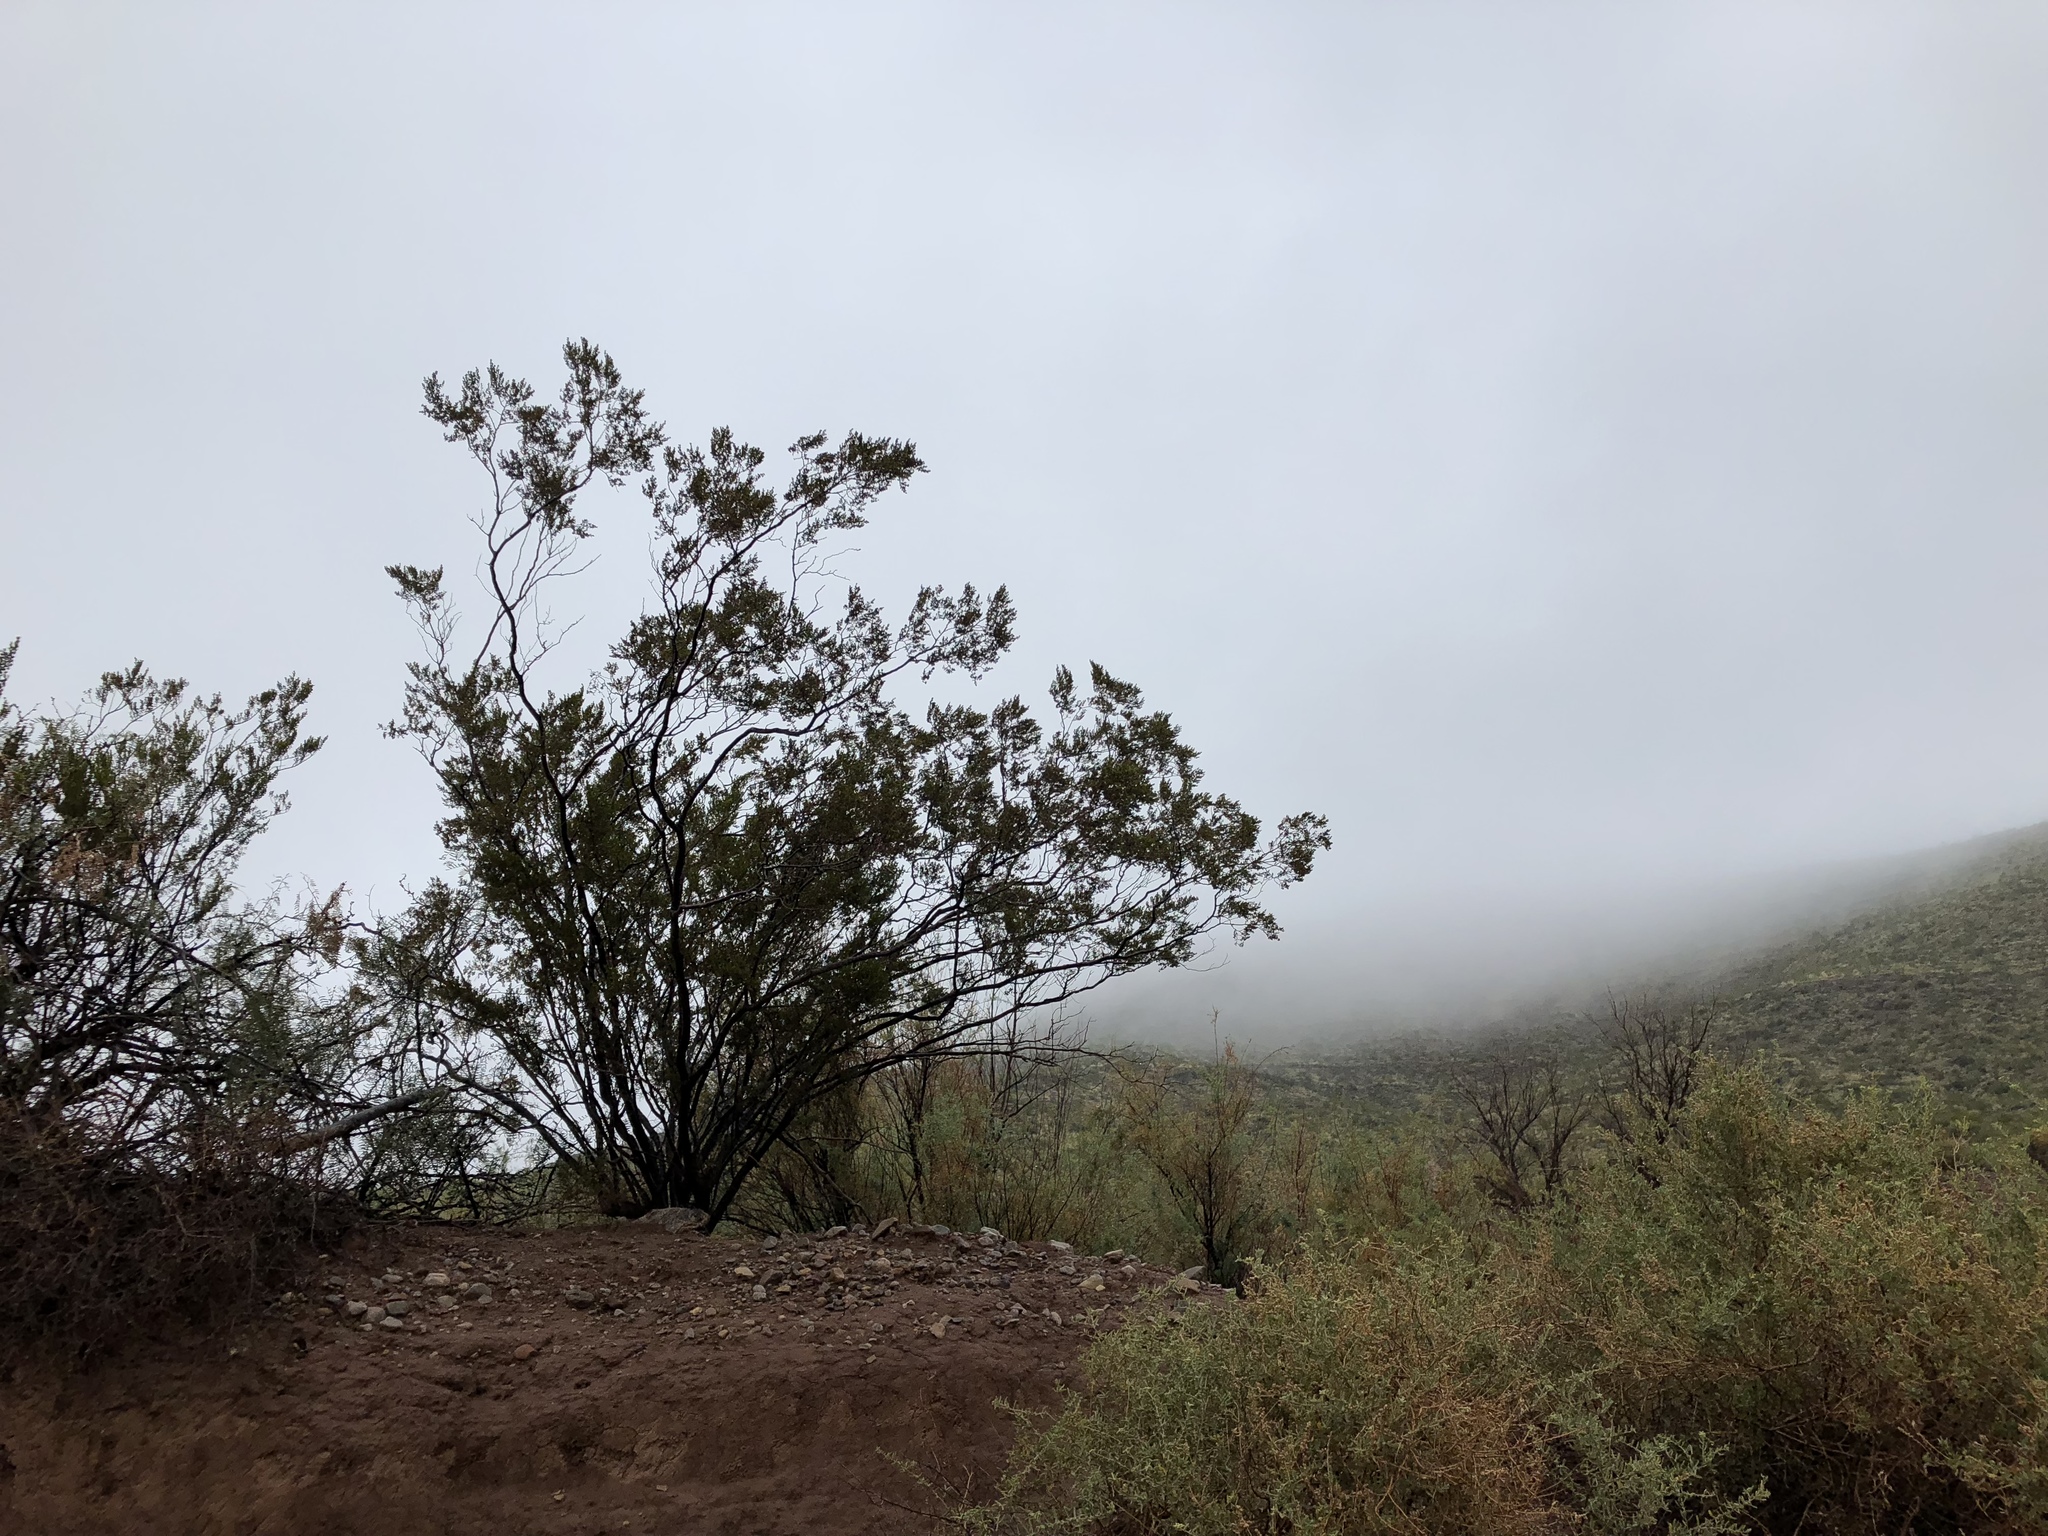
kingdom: Plantae
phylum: Tracheophyta
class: Magnoliopsida
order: Zygophyllales
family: Zygophyllaceae
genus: Larrea
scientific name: Larrea tridentata
